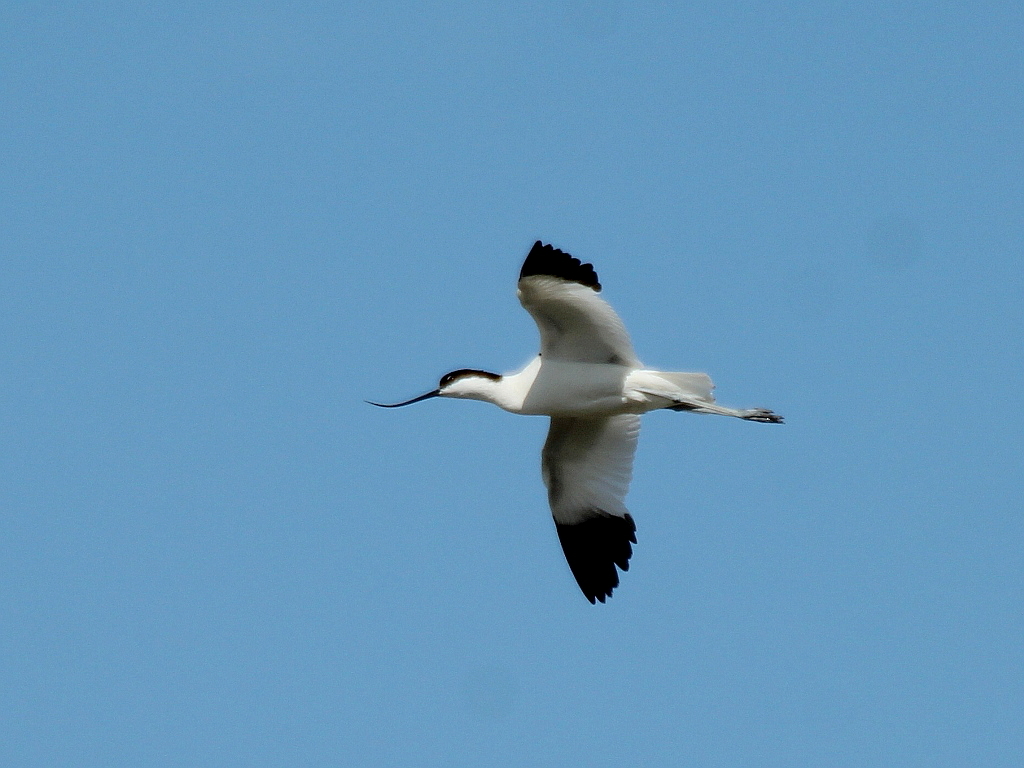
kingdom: Animalia
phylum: Chordata
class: Aves
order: Charadriiformes
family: Recurvirostridae
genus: Recurvirostra
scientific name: Recurvirostra avosetta
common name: Pied avocet
